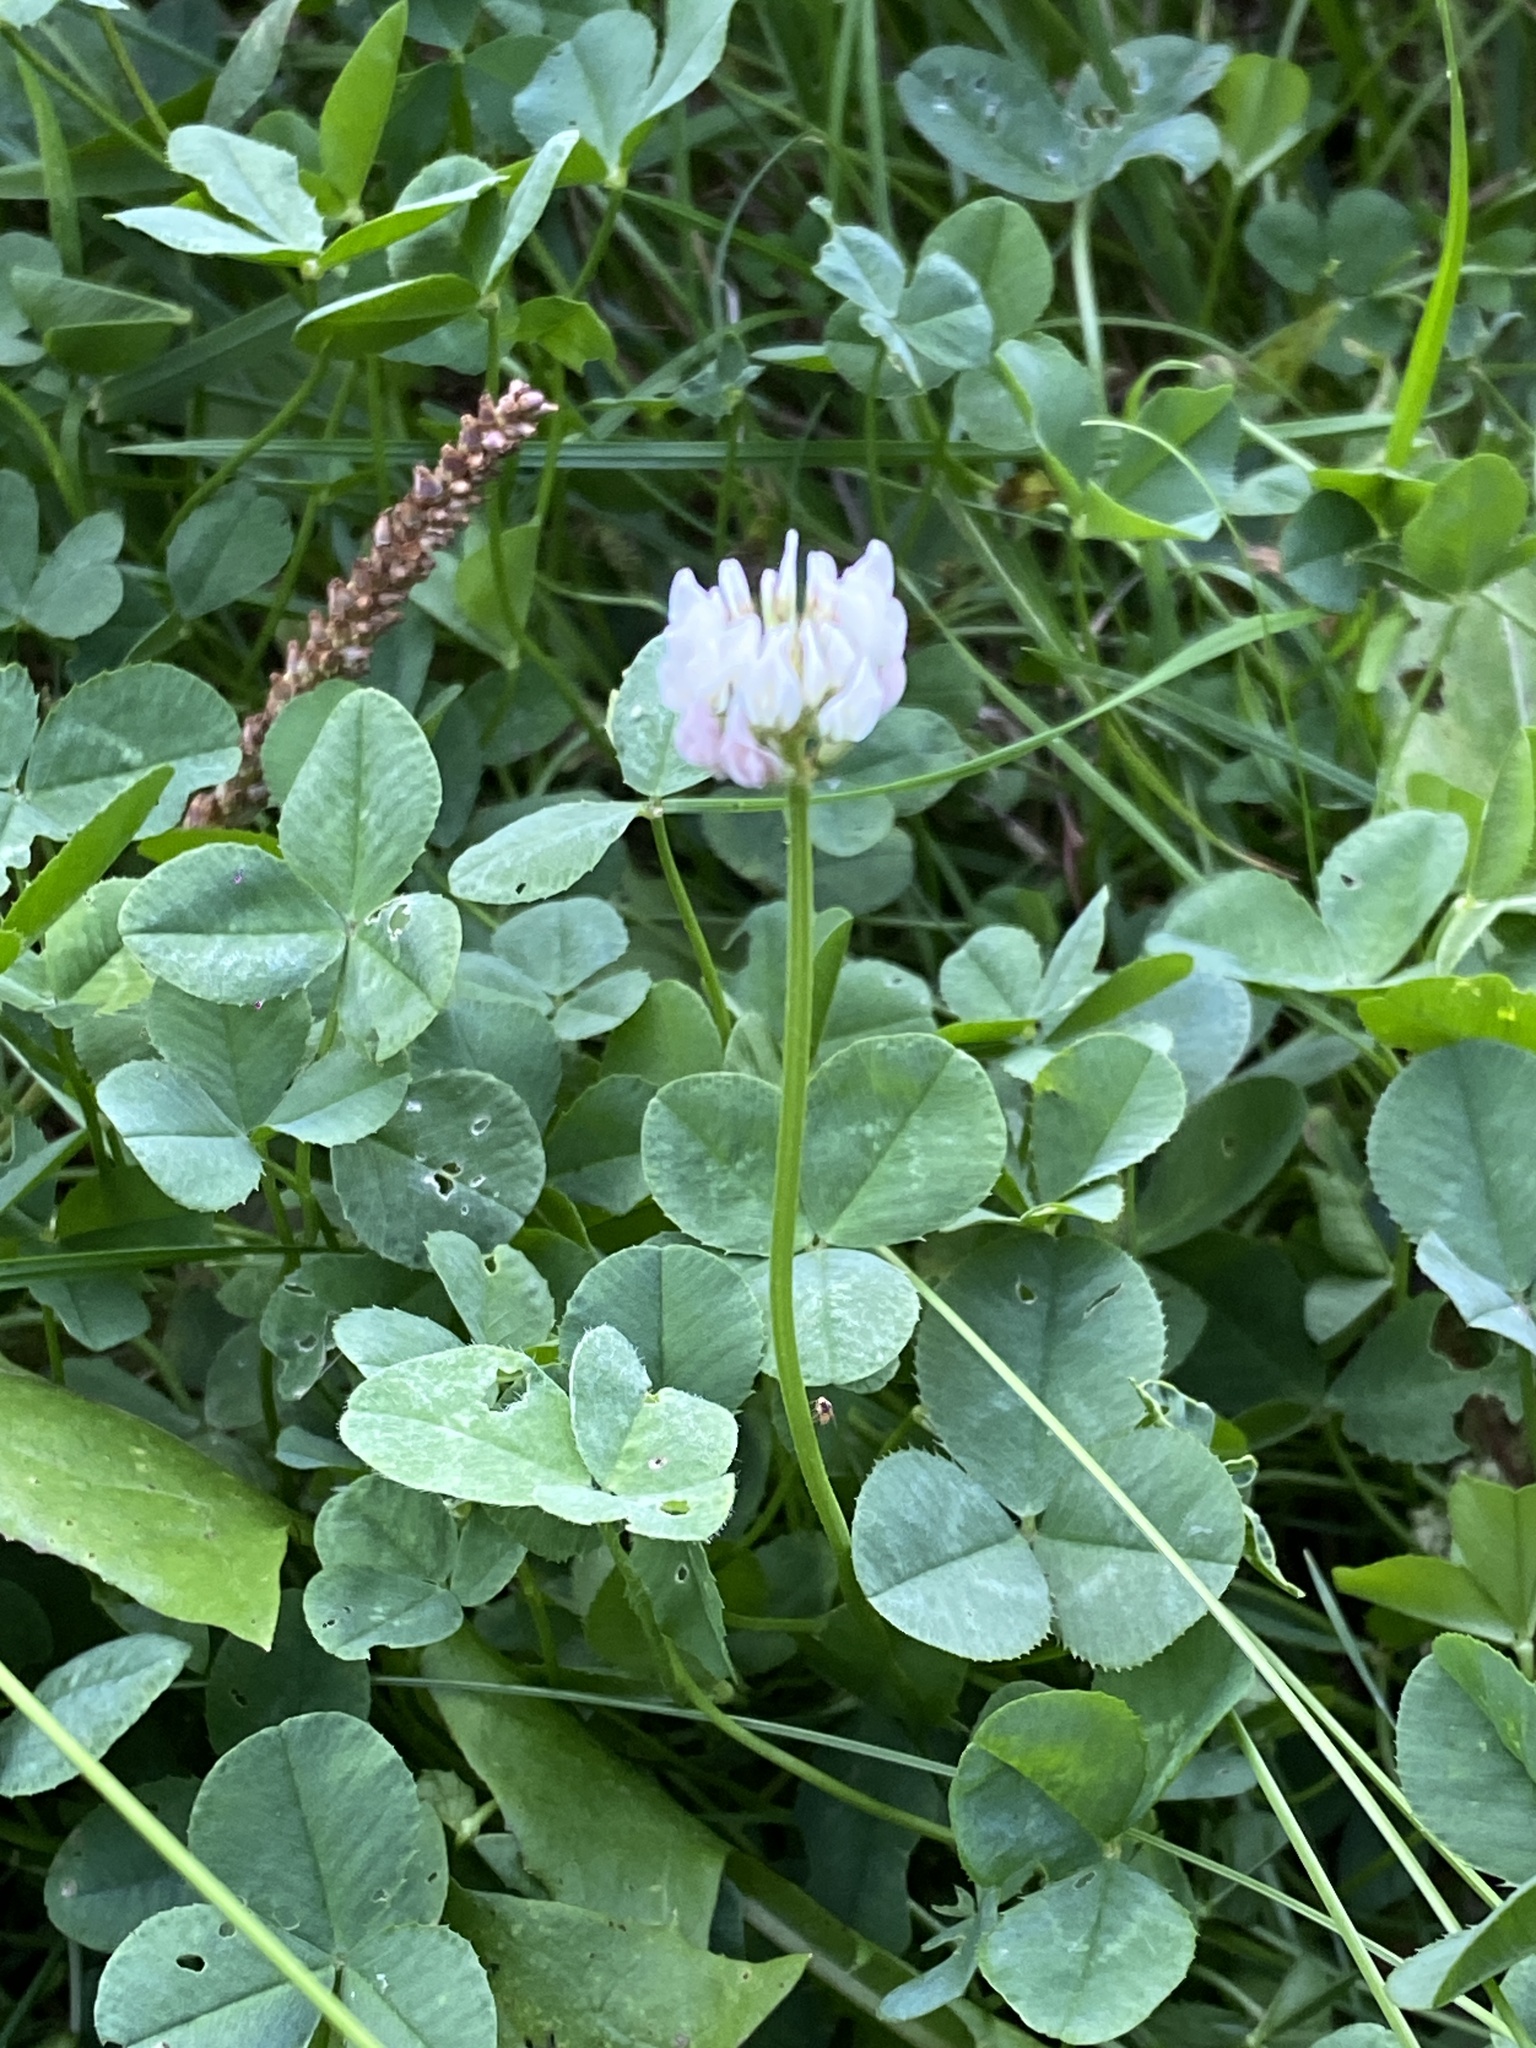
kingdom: Plantae
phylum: Tracheophyta
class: Magnoliopsida
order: Fabales
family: Fabaceae
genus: Trifolium
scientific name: Trifolium repens
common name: White clover
